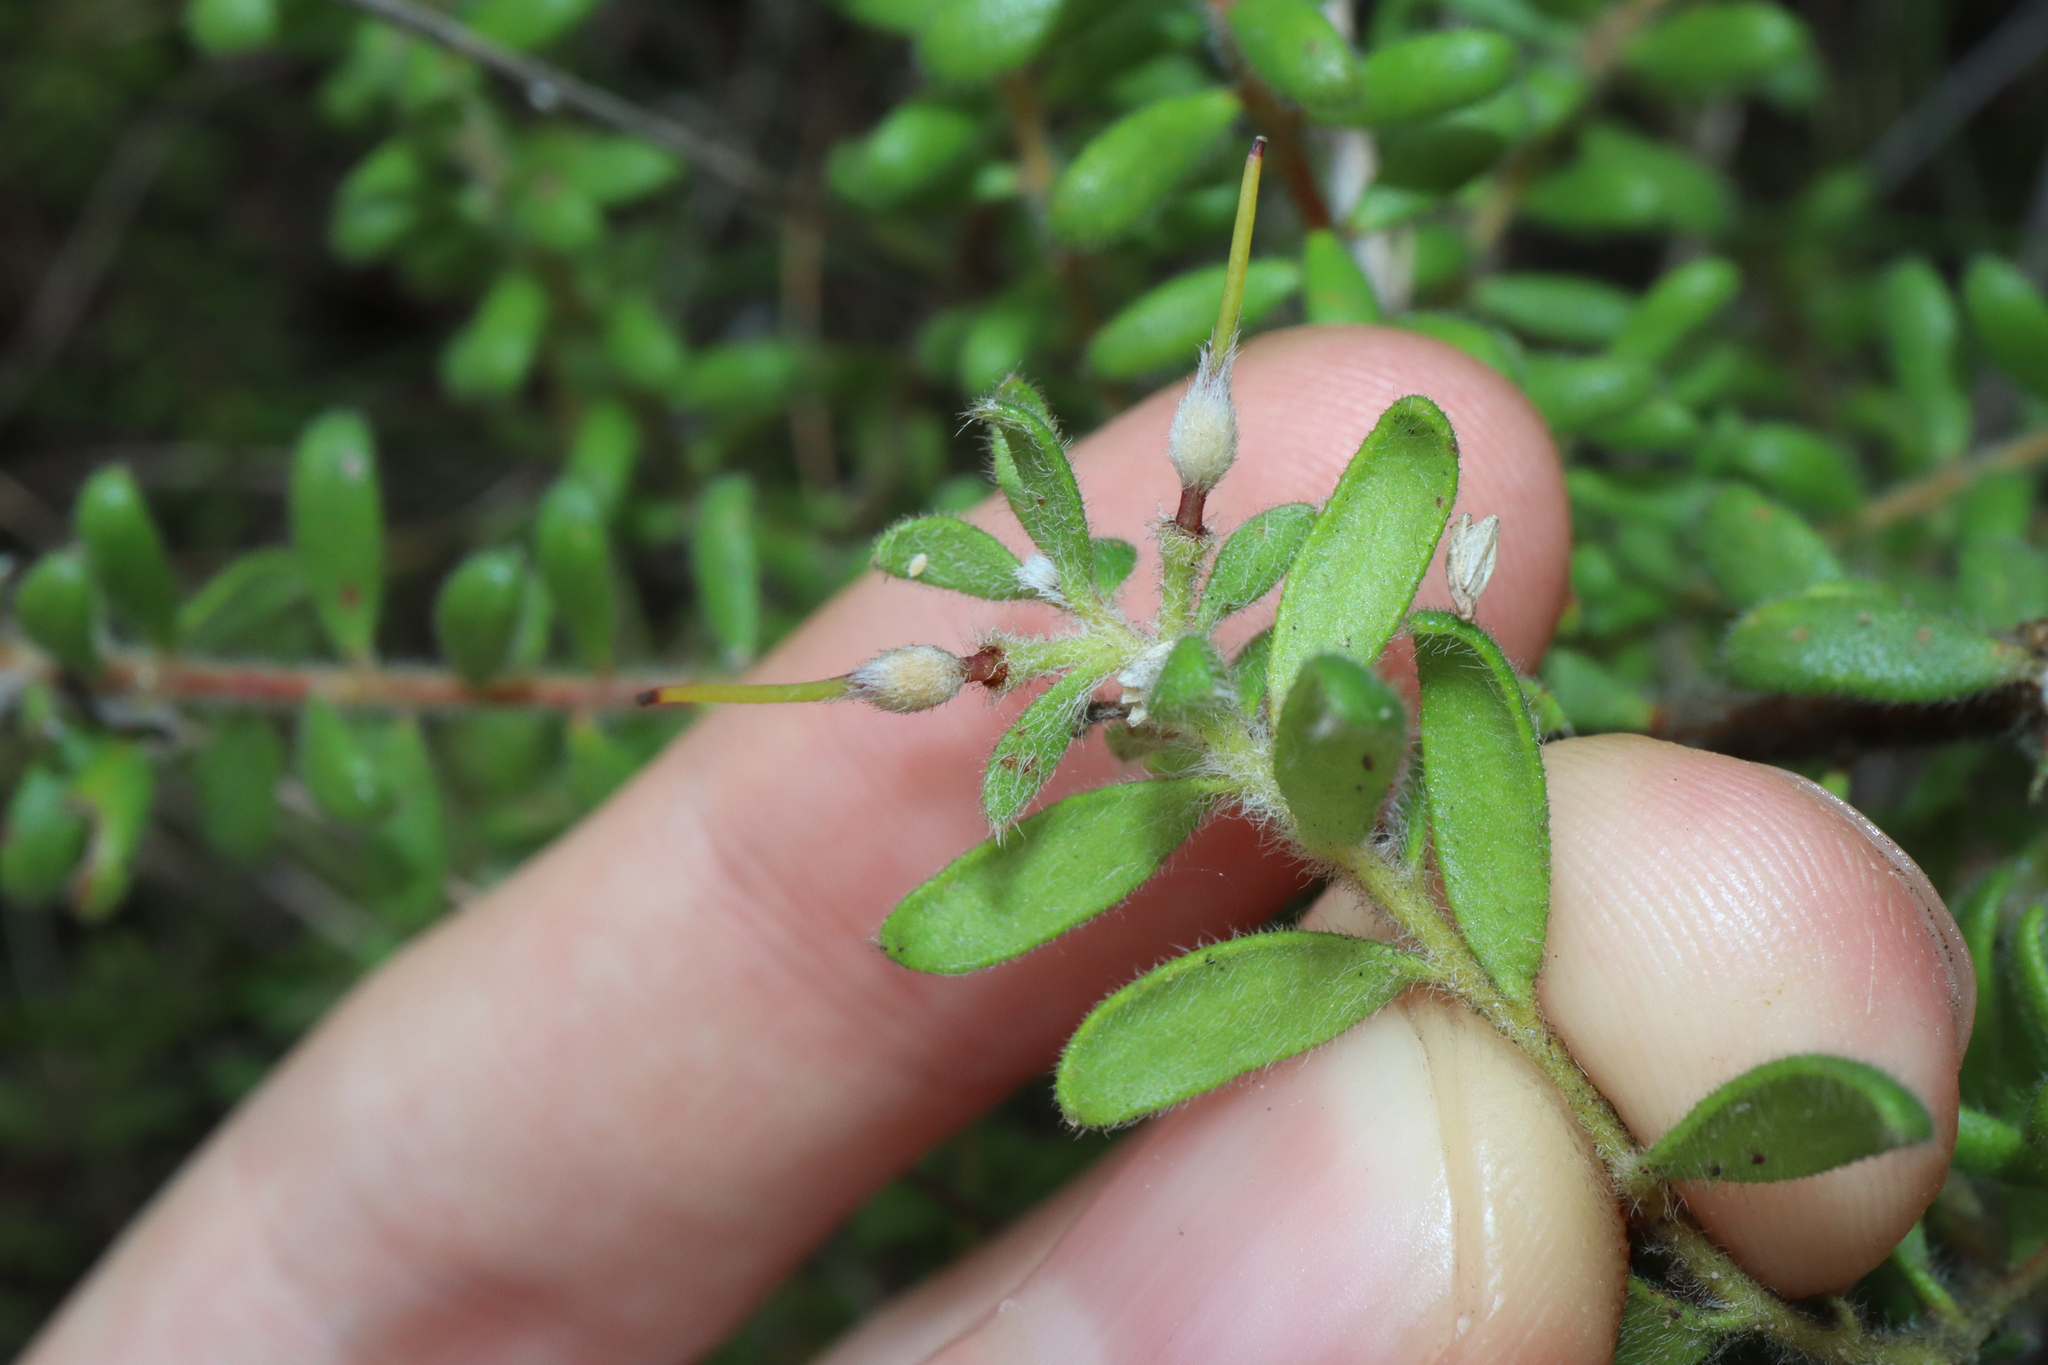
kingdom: Plantae
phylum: Tracheophyta
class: Magnoliopsida
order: Proteales
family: Proteaceae
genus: Persoonia
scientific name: Persoonia hirsuta
